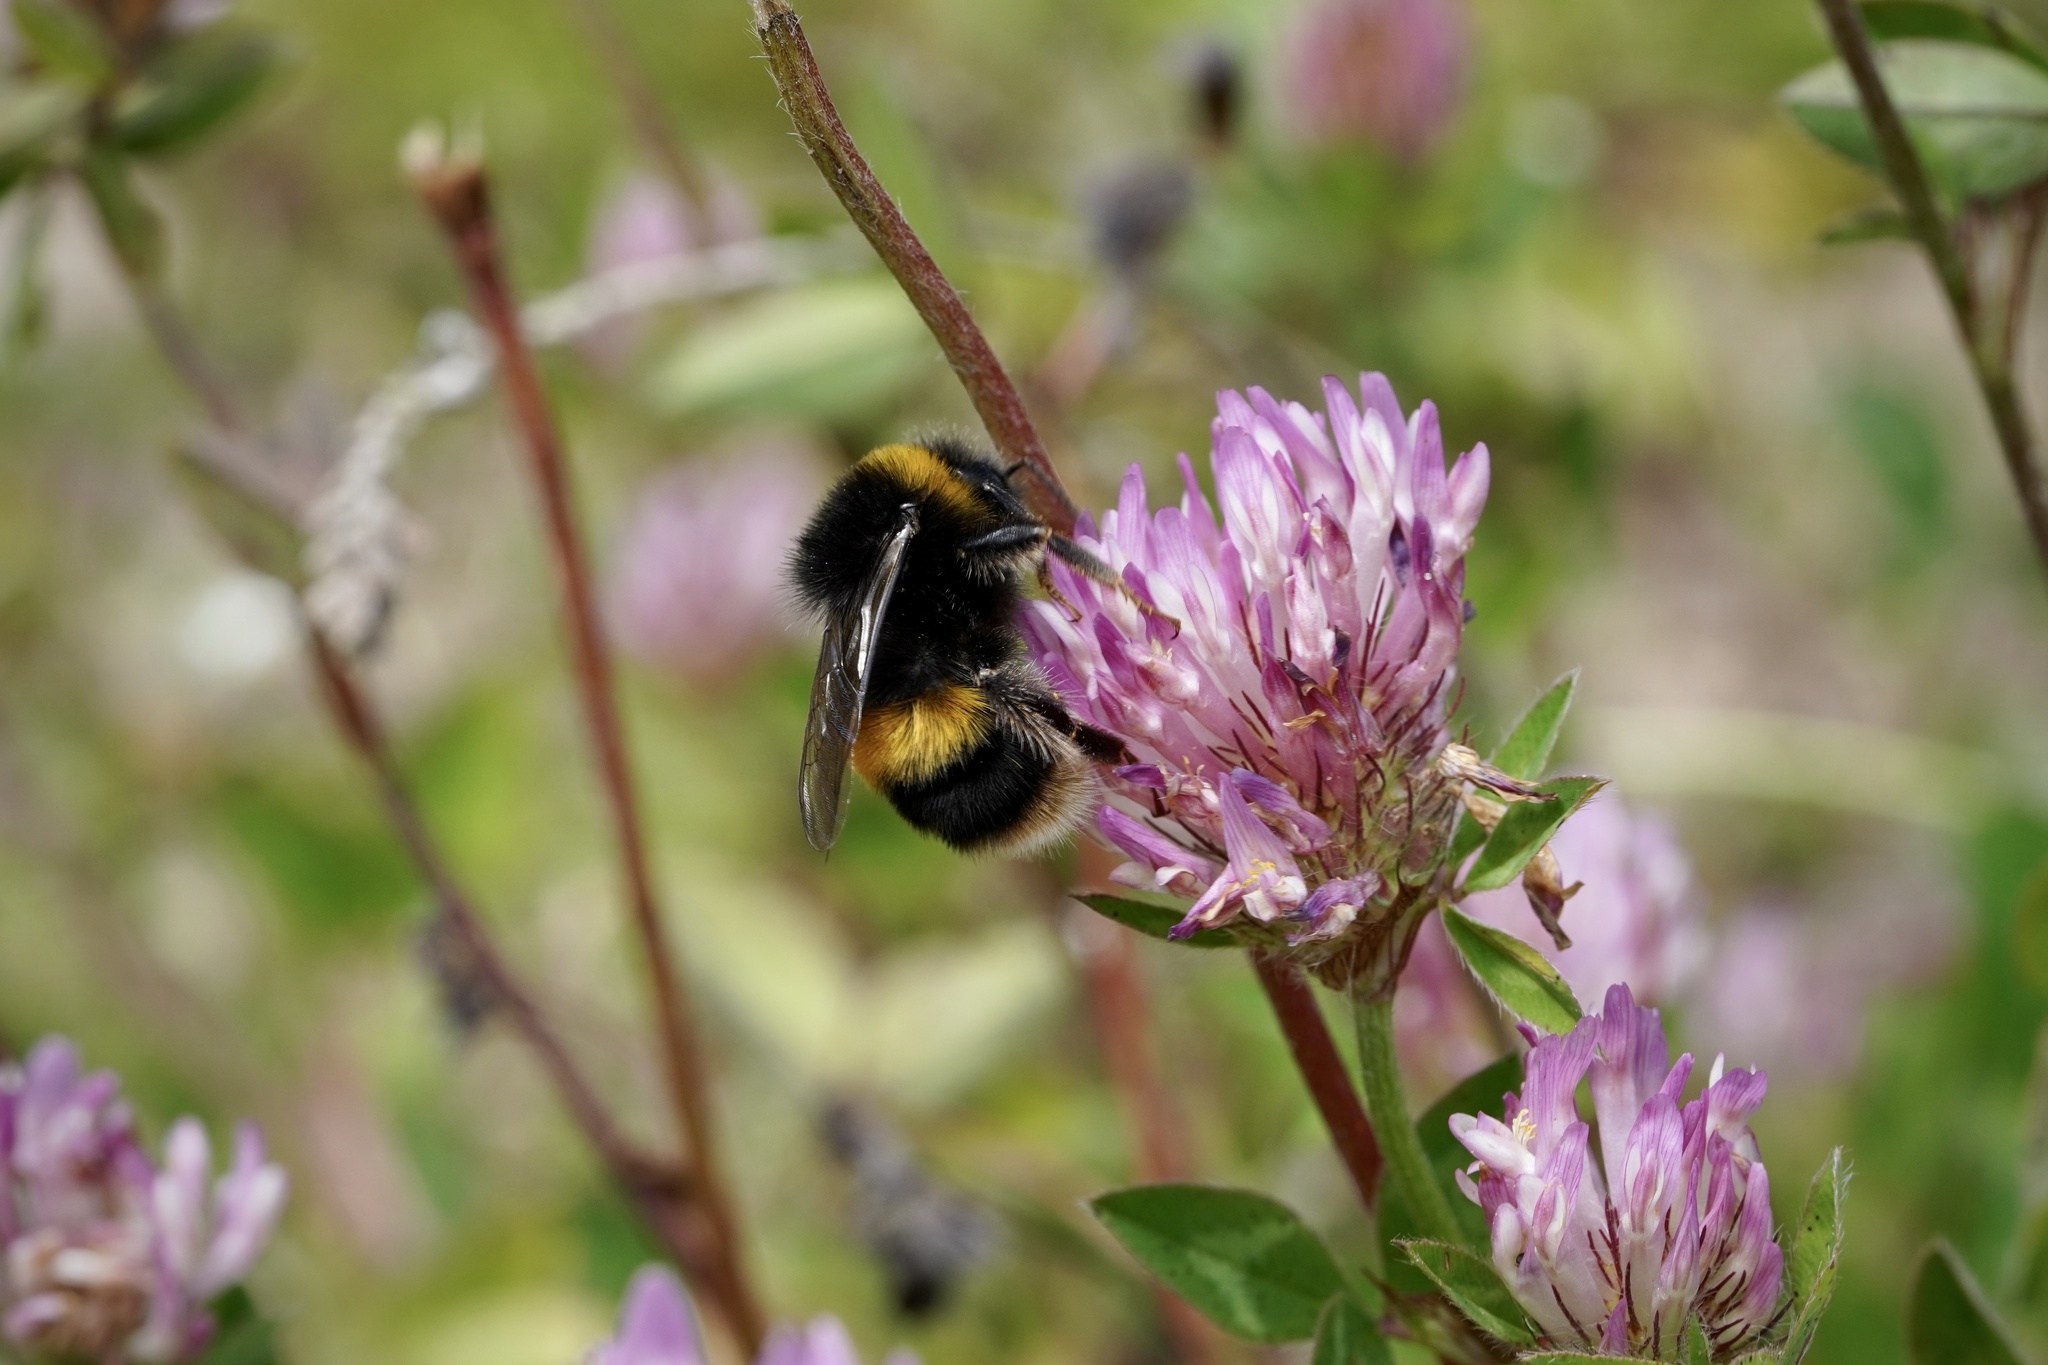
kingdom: Animalia
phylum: Arthropoda
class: Insecta
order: Hymenoptera
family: Apidae
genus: Bombus
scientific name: Bombus terrestris
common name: Buff-tailed bumblebee
